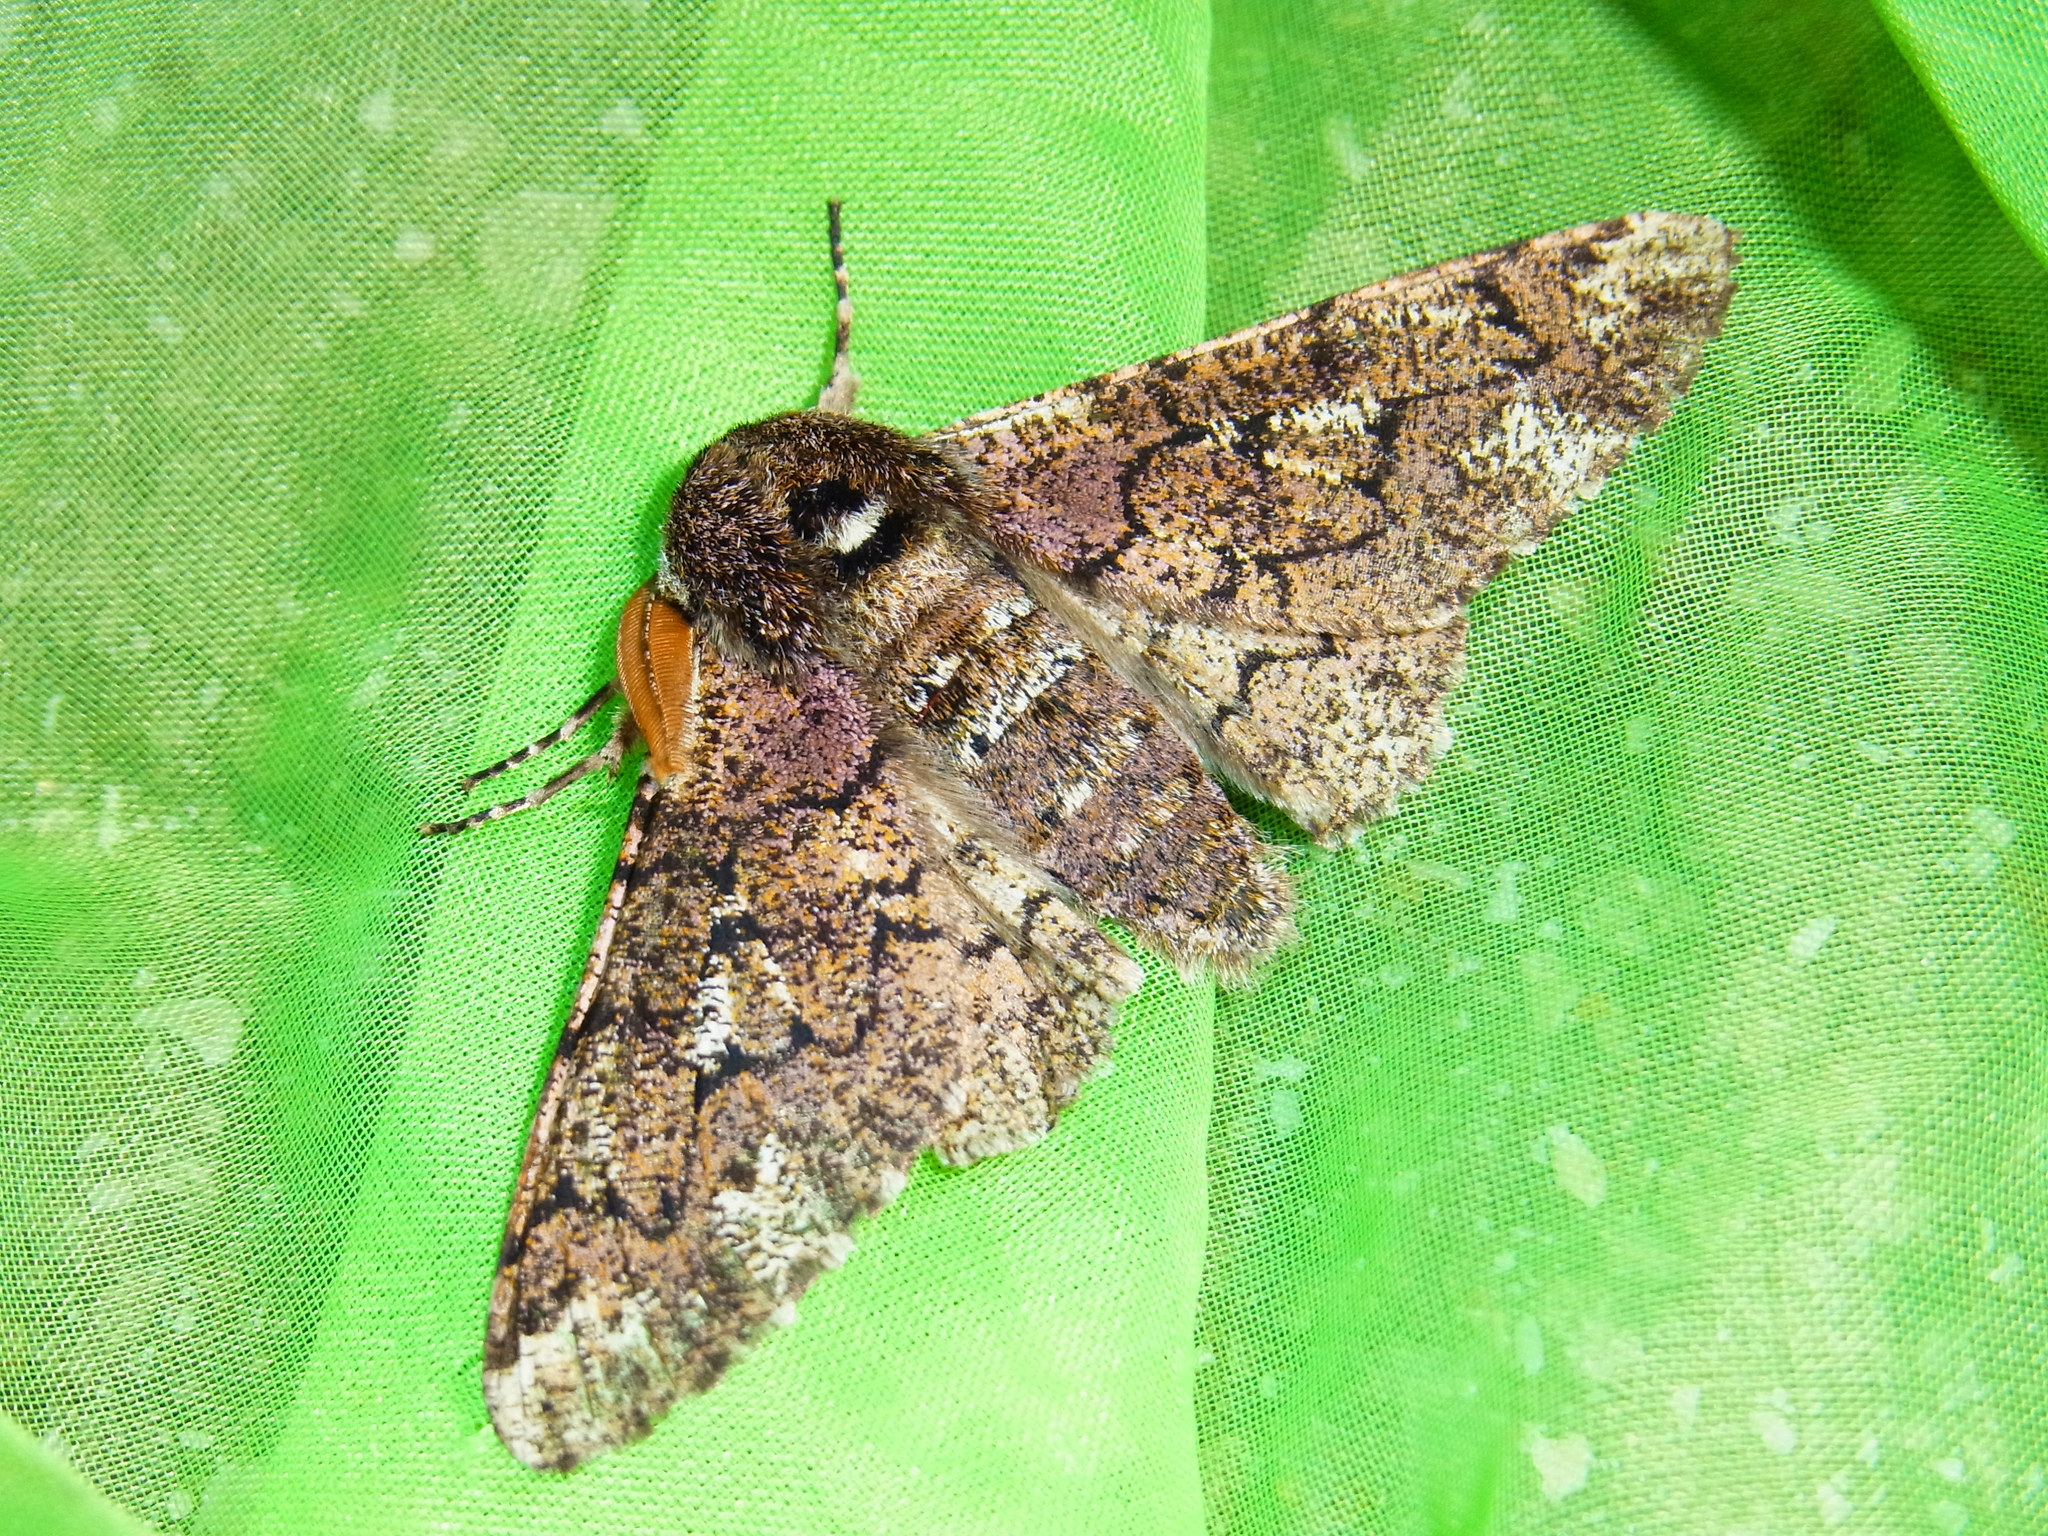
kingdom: Animalia
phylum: Arthropoda
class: Insecta
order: Lepidoptera
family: Geometridae
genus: Biston
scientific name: Biston robustum
